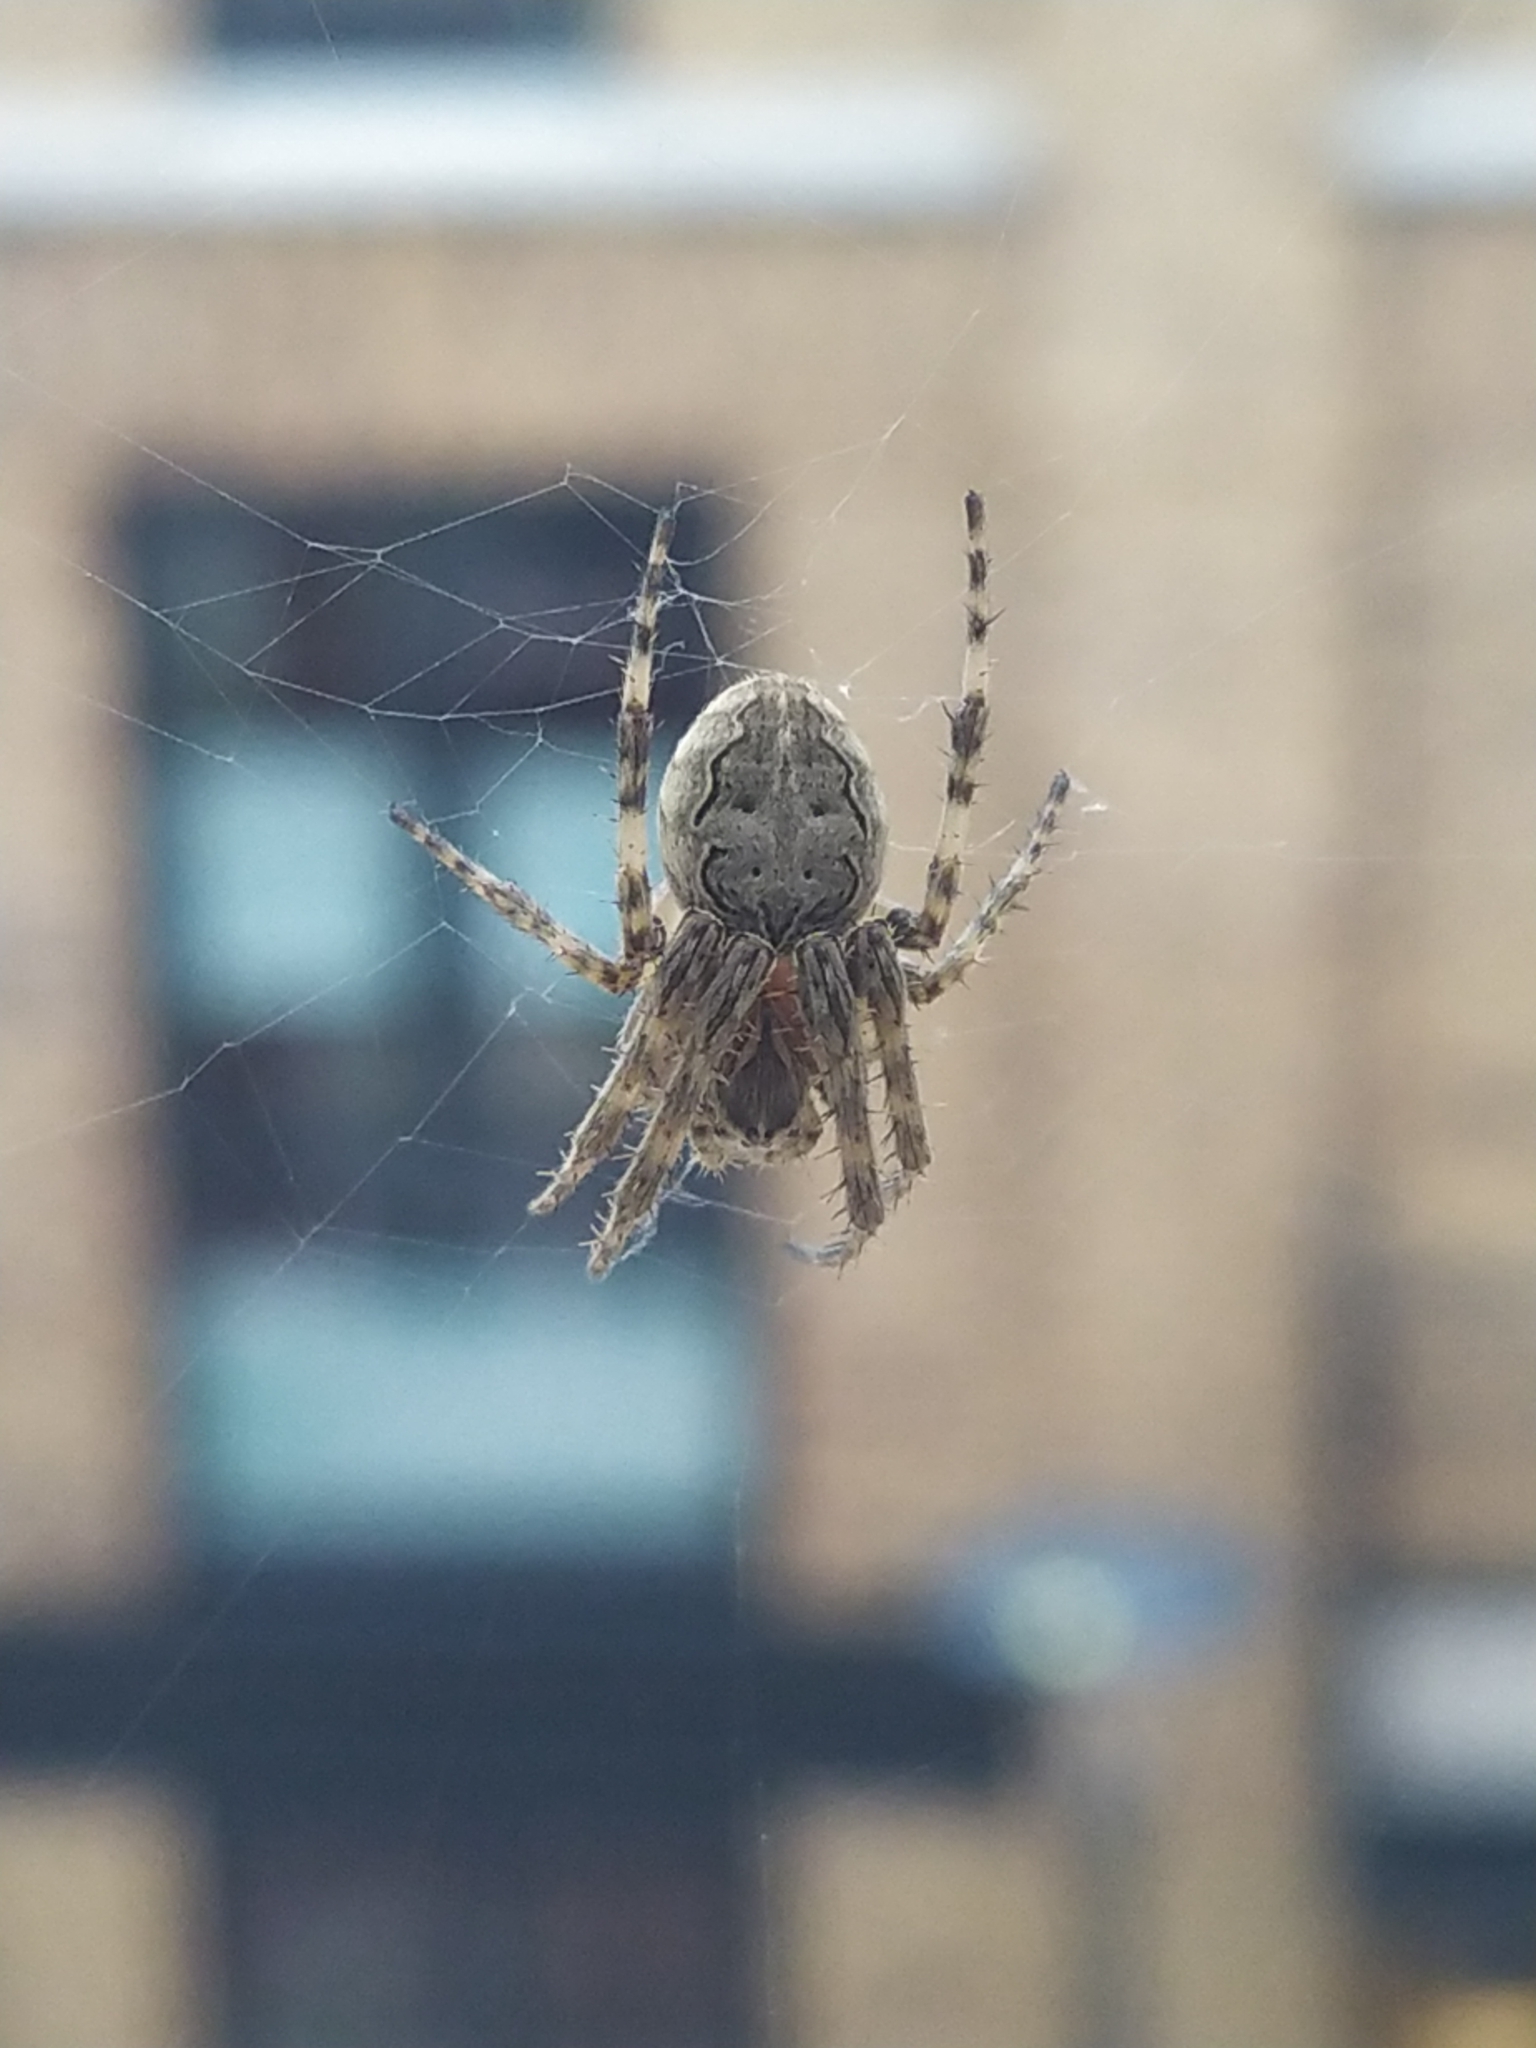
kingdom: Animalia
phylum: Arthropoda
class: Arachnida
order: Araneae
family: Araneidae
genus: Larinioides
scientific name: Larinioides sclopetarius
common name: Bridge orbweaver
